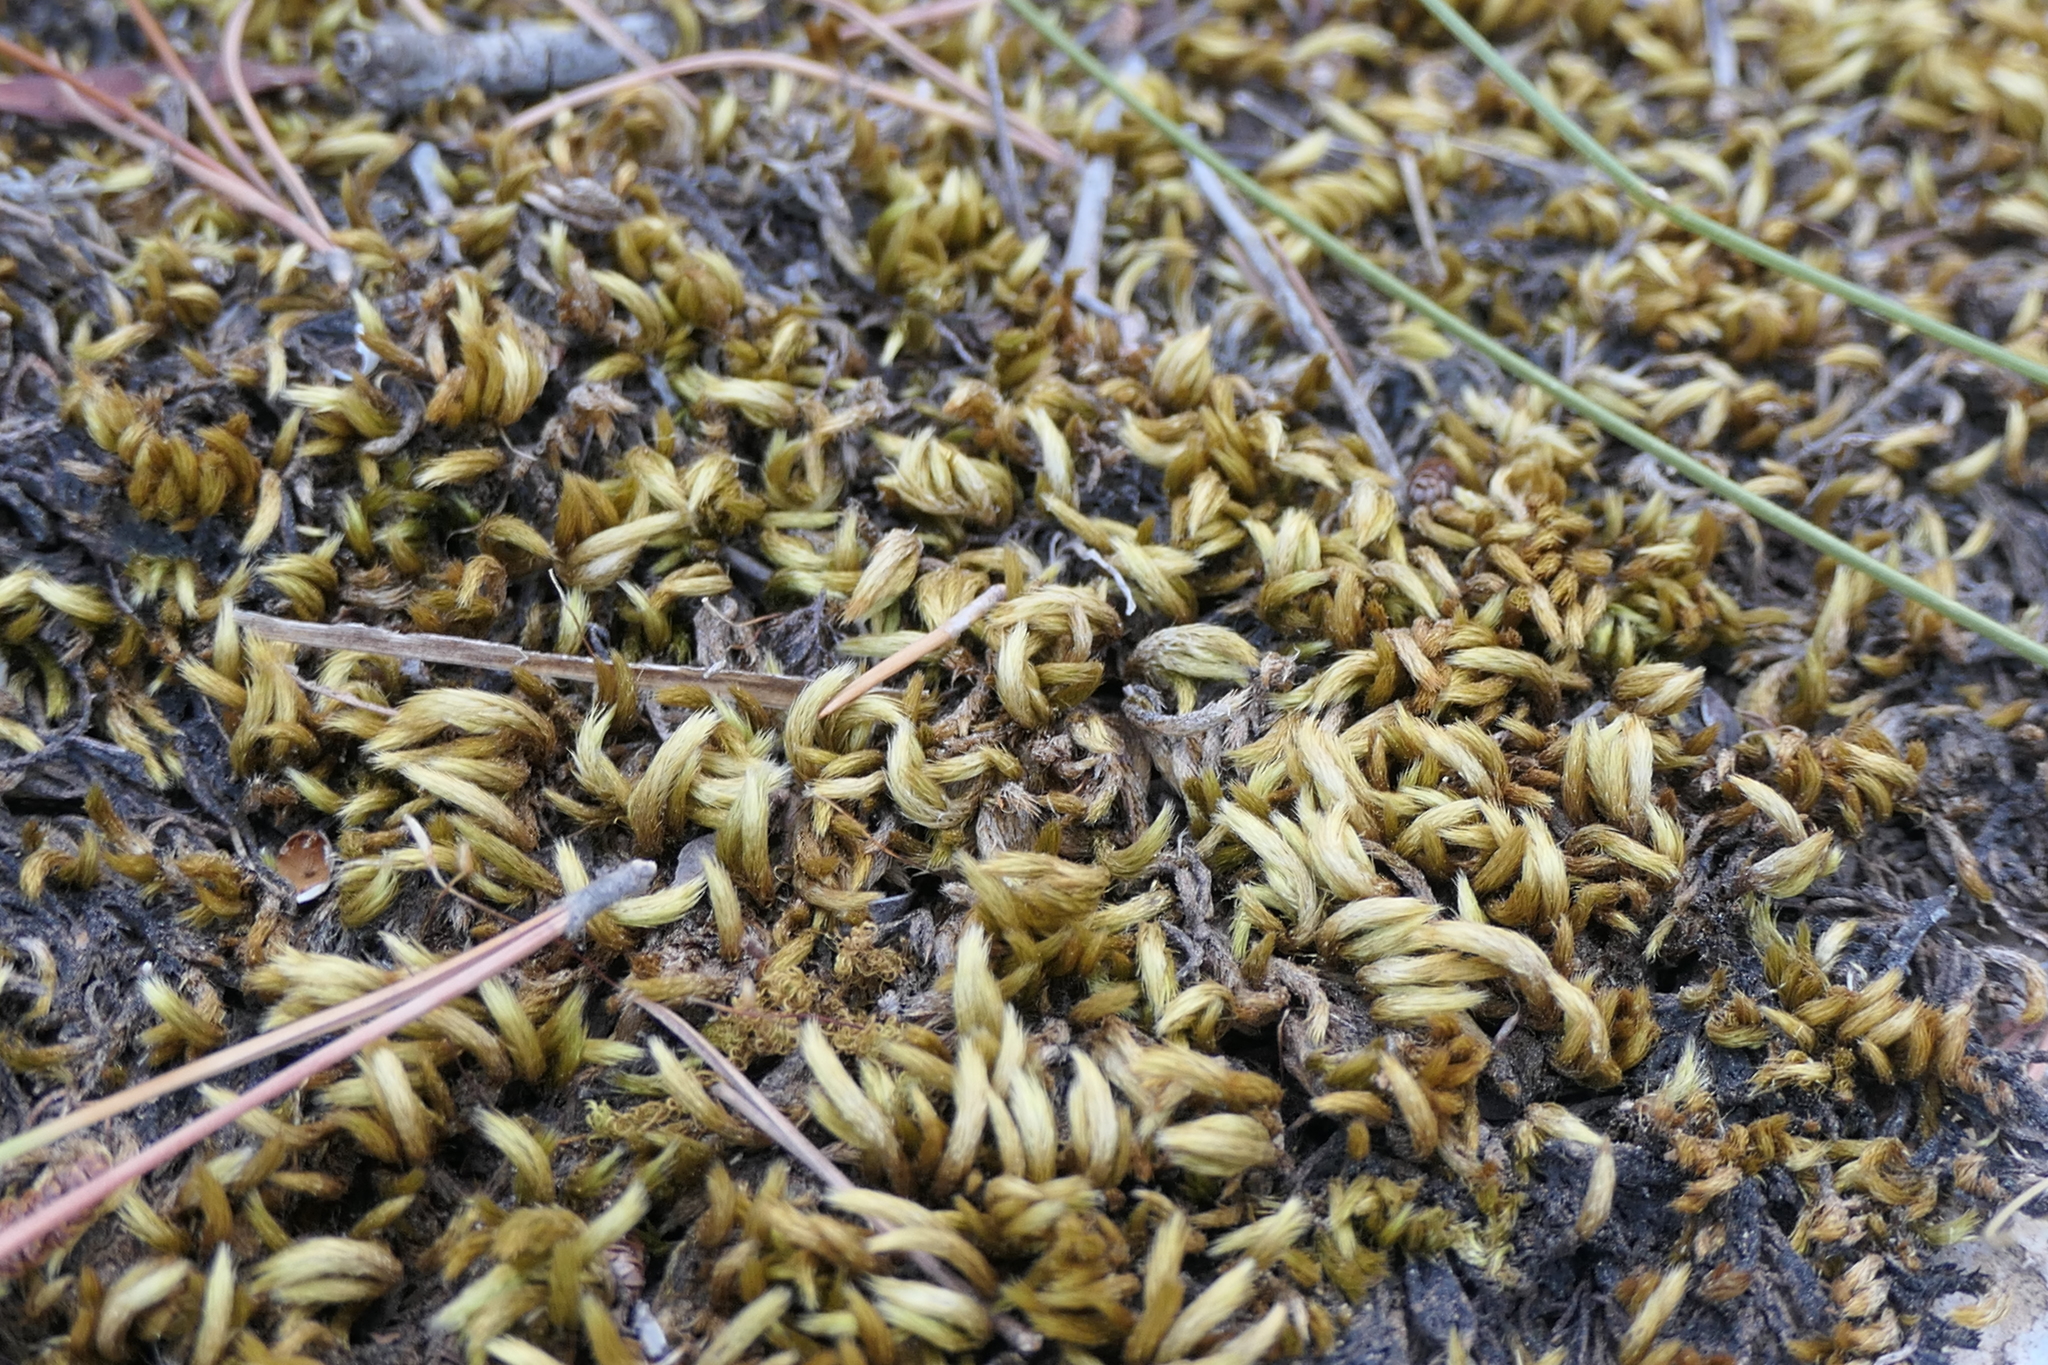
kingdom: Plantae
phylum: Bryophyta
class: Bryopsida
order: Hypnales
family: Brachytheciaceae
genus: Homalothecium
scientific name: Homalothecium sericeum
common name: Silky wall feather-moss
